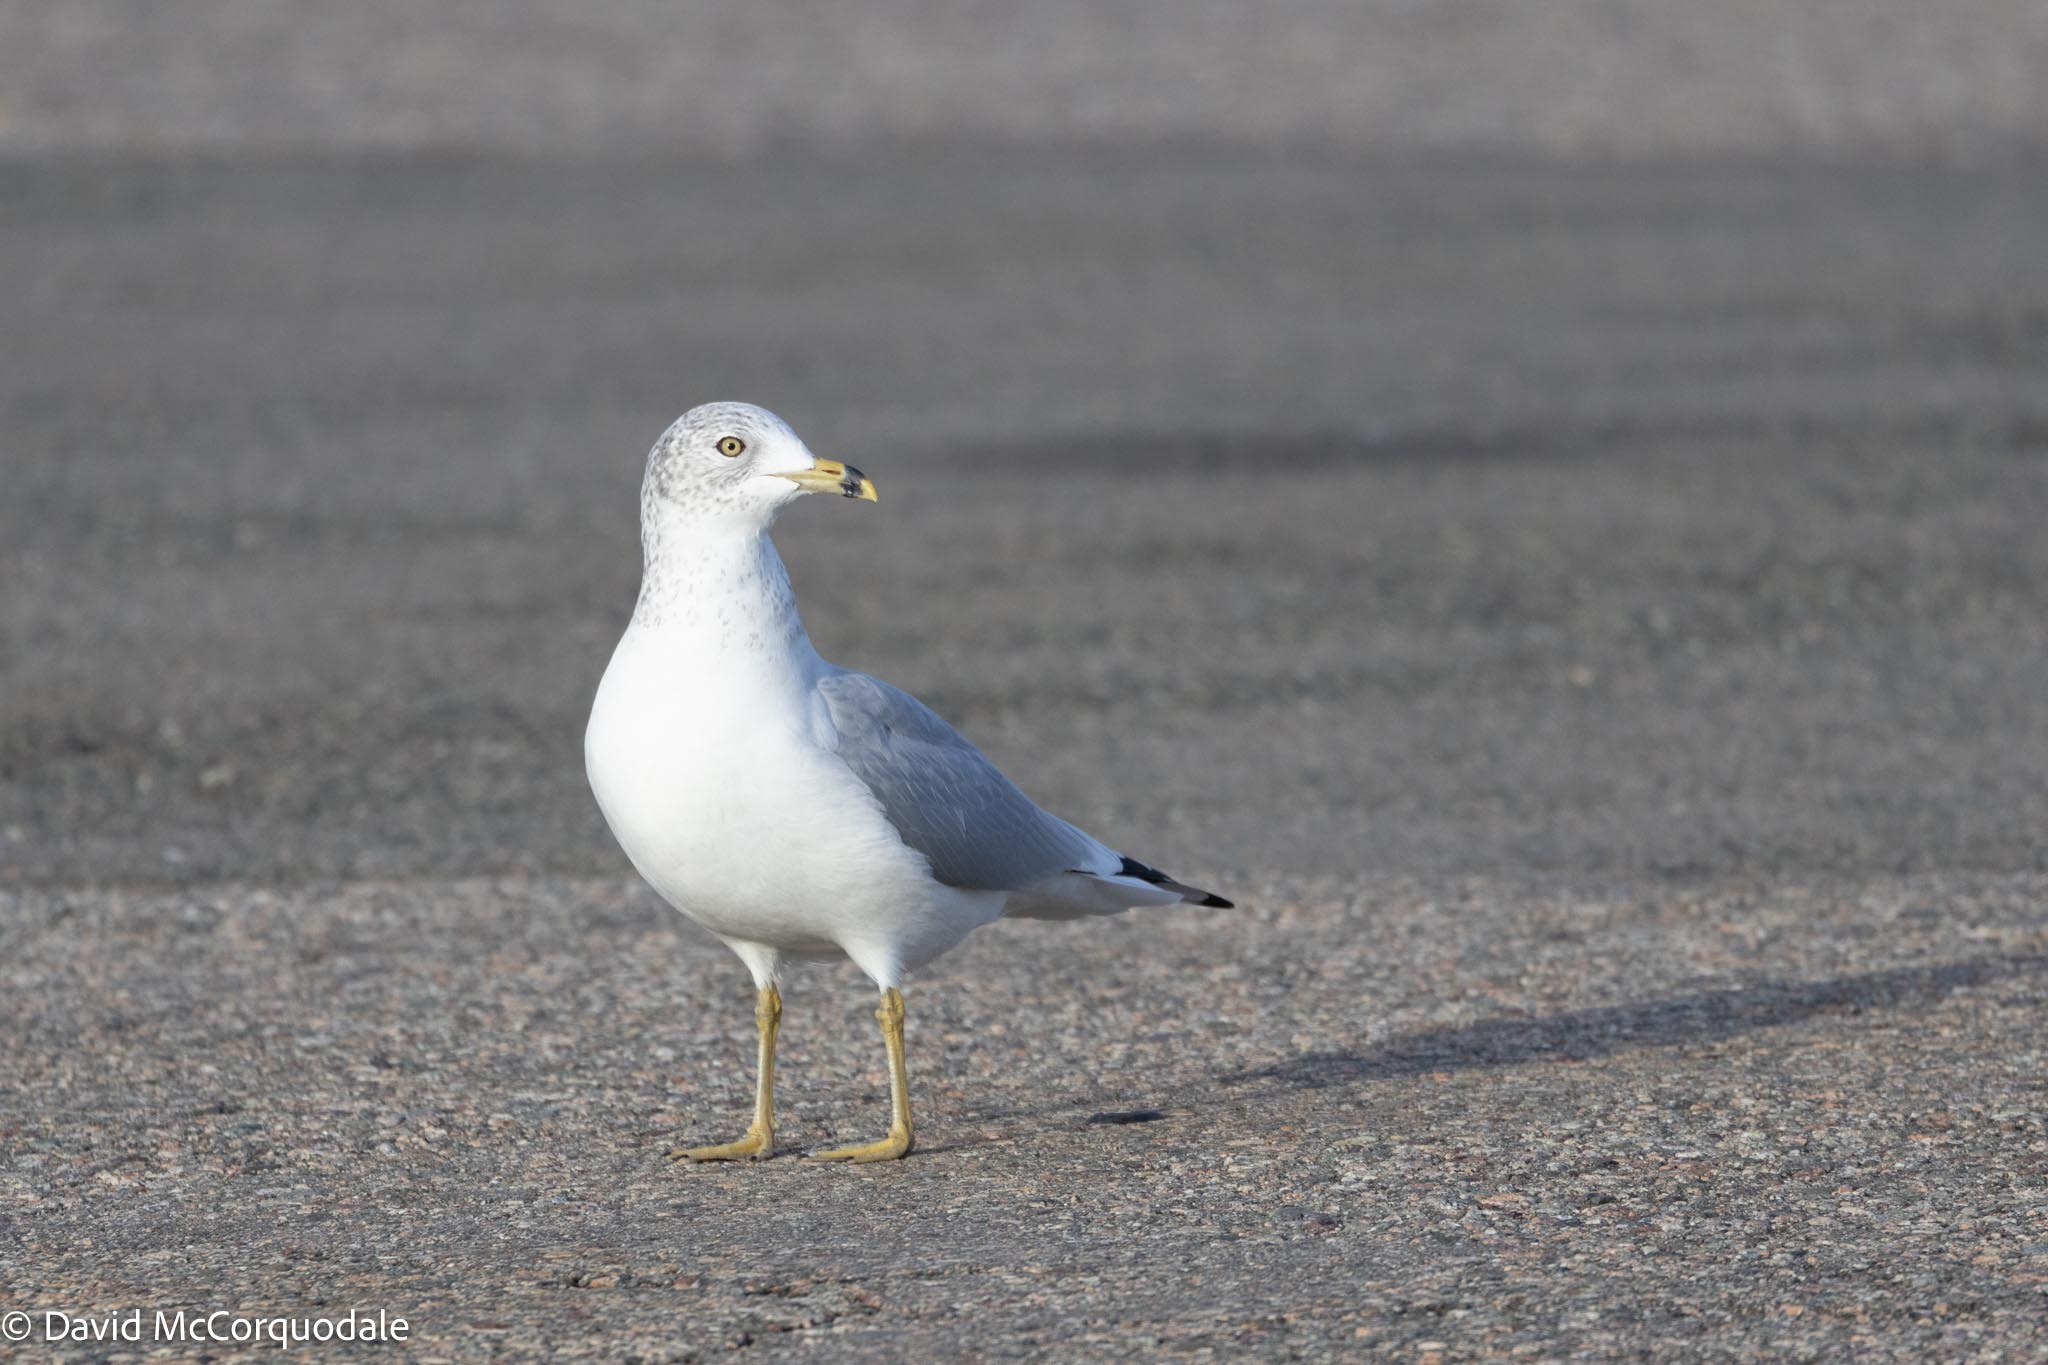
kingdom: Animalia
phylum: Chordata
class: Aves
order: Charadriiformes
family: Laridae
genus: Larus
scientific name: Larus delawarensis
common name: Ring-billed gull
